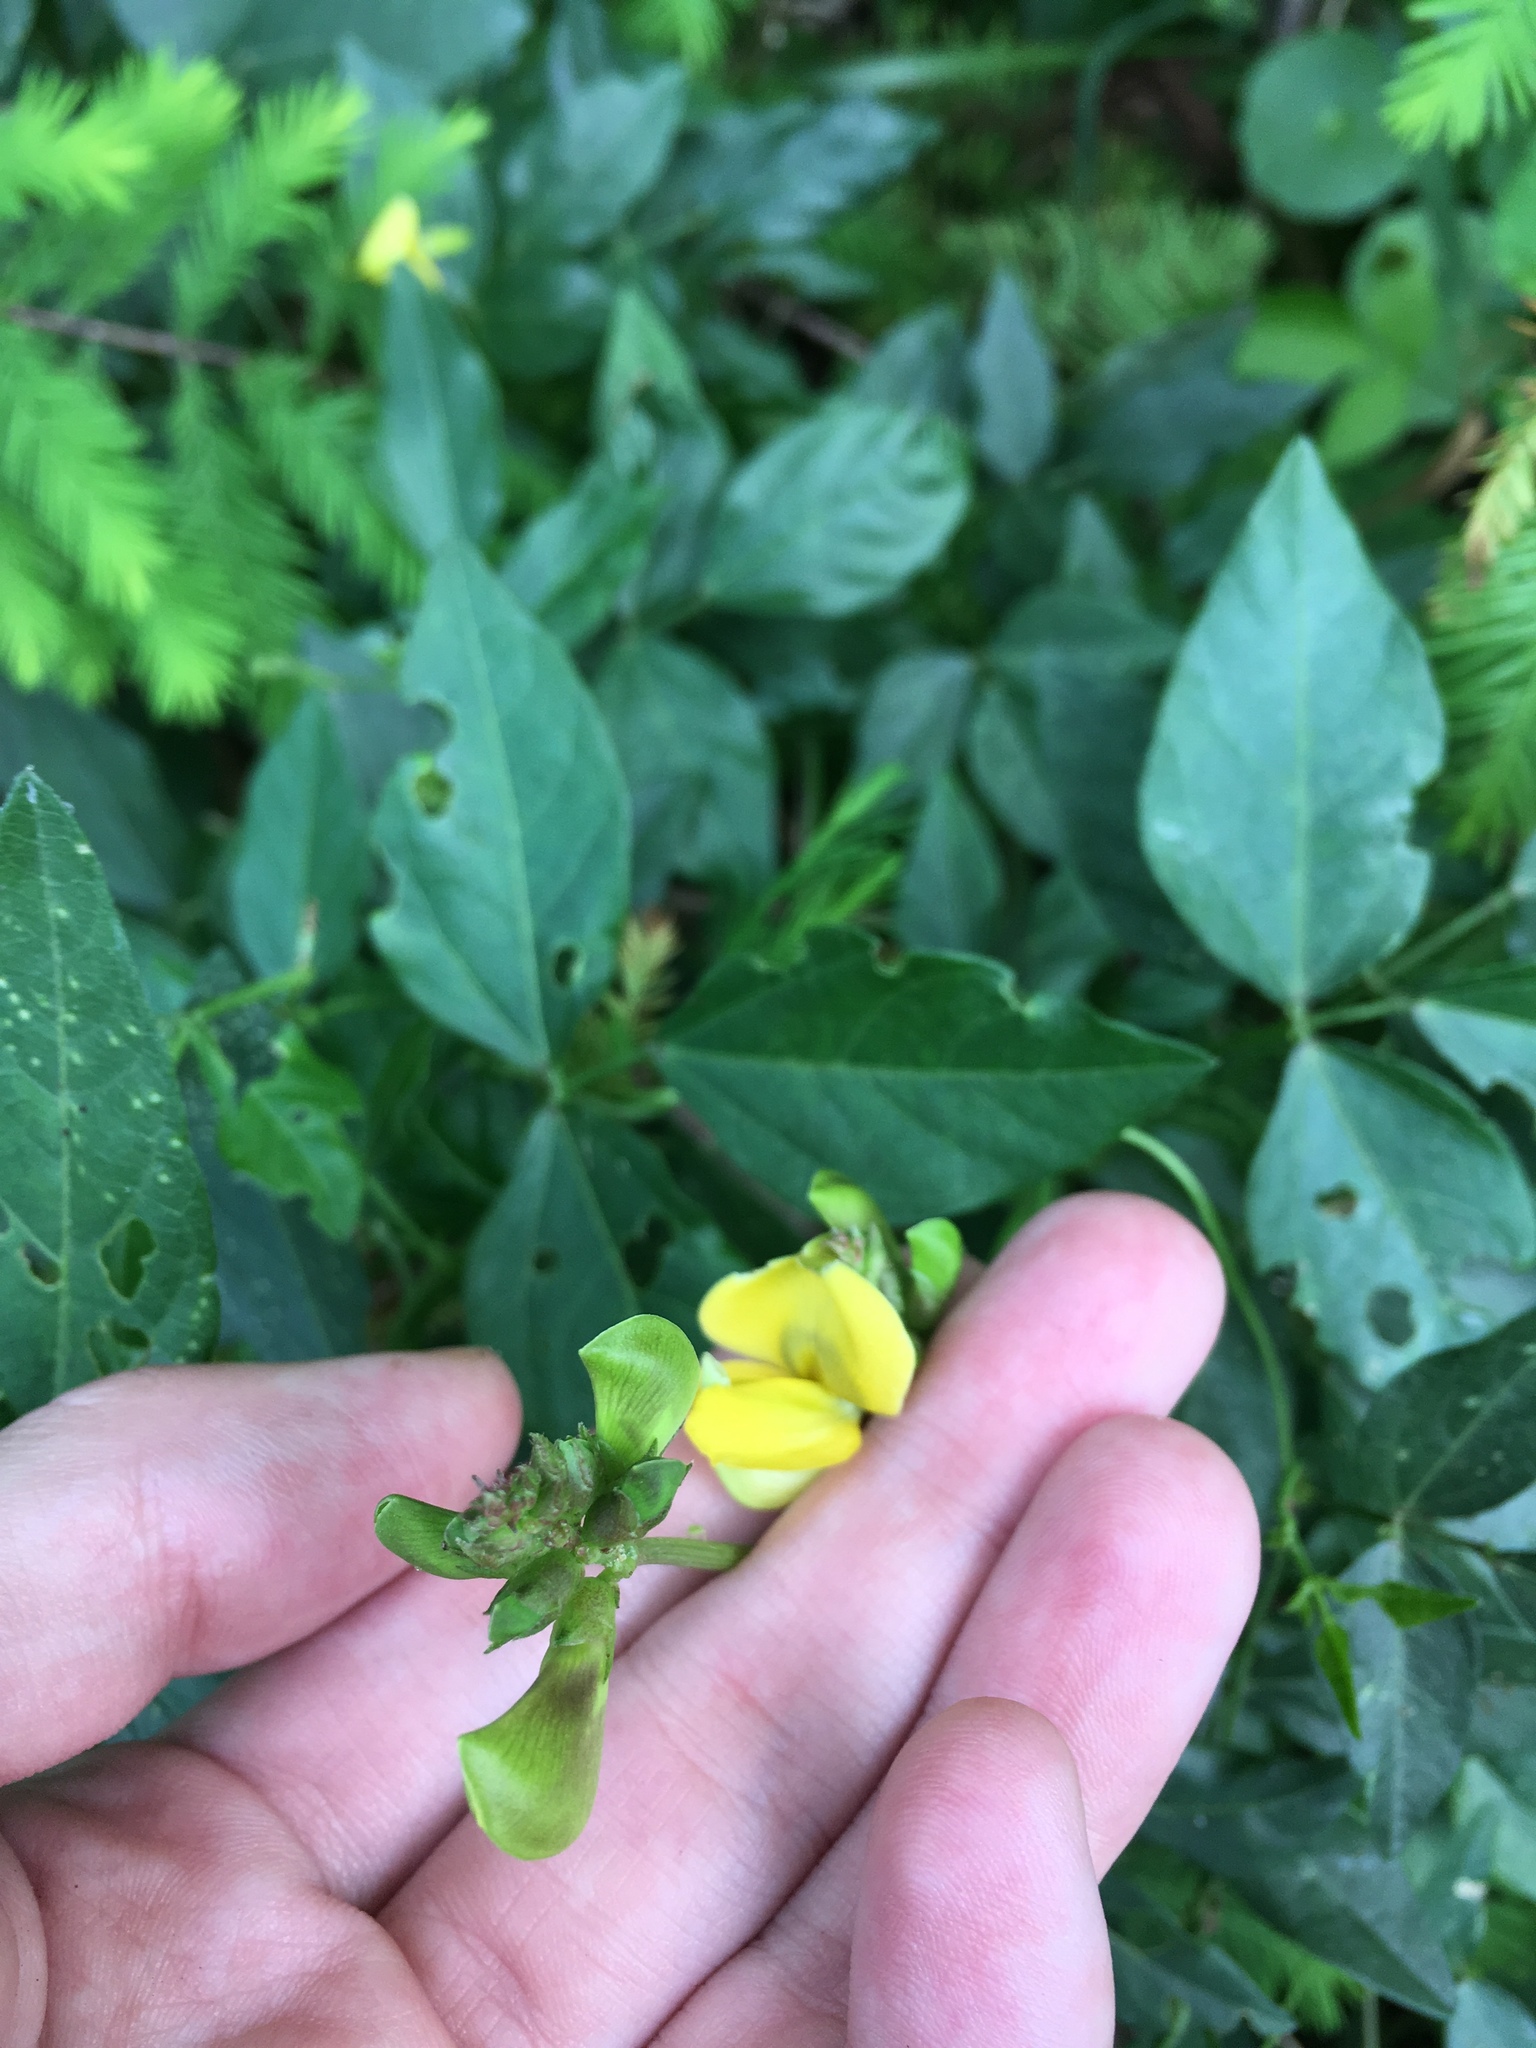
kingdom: Plantae
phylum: Tracheophyta
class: Magnoliopsida
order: Fabales
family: Fabaceae
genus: Vigna
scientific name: Vigna luteola
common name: Hairypod cowpea
